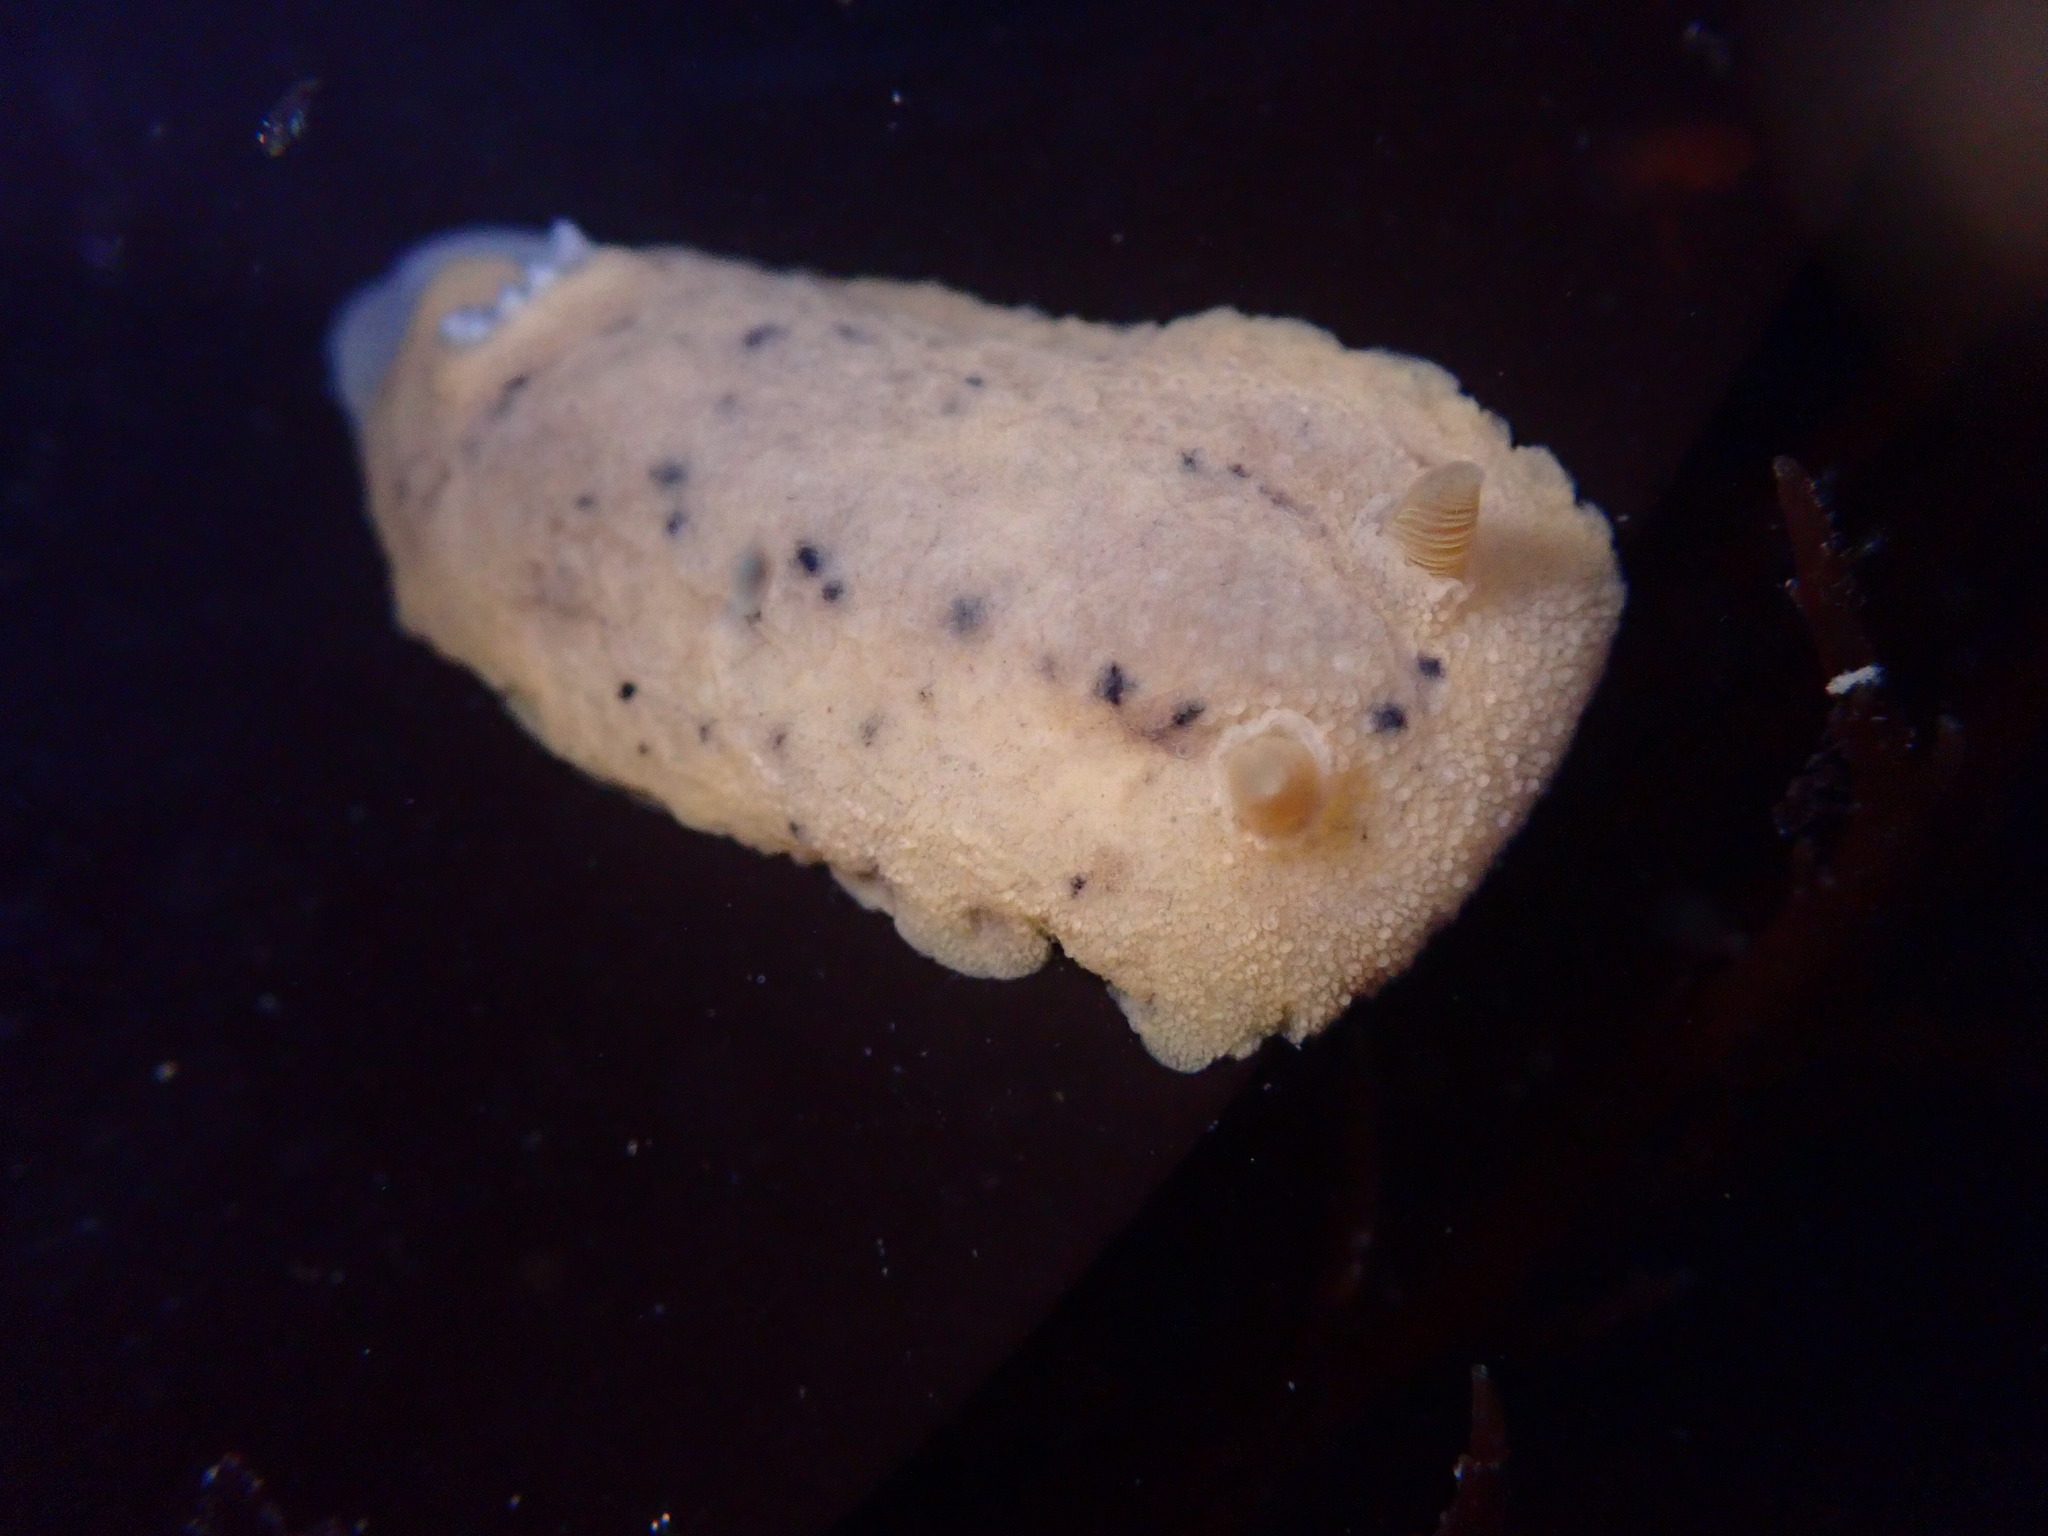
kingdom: Animalia
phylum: Mollusca
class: Gastropoda
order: Nudibranchia
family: Discodorididae
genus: Geitodoris
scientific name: Geitodoris heathi
